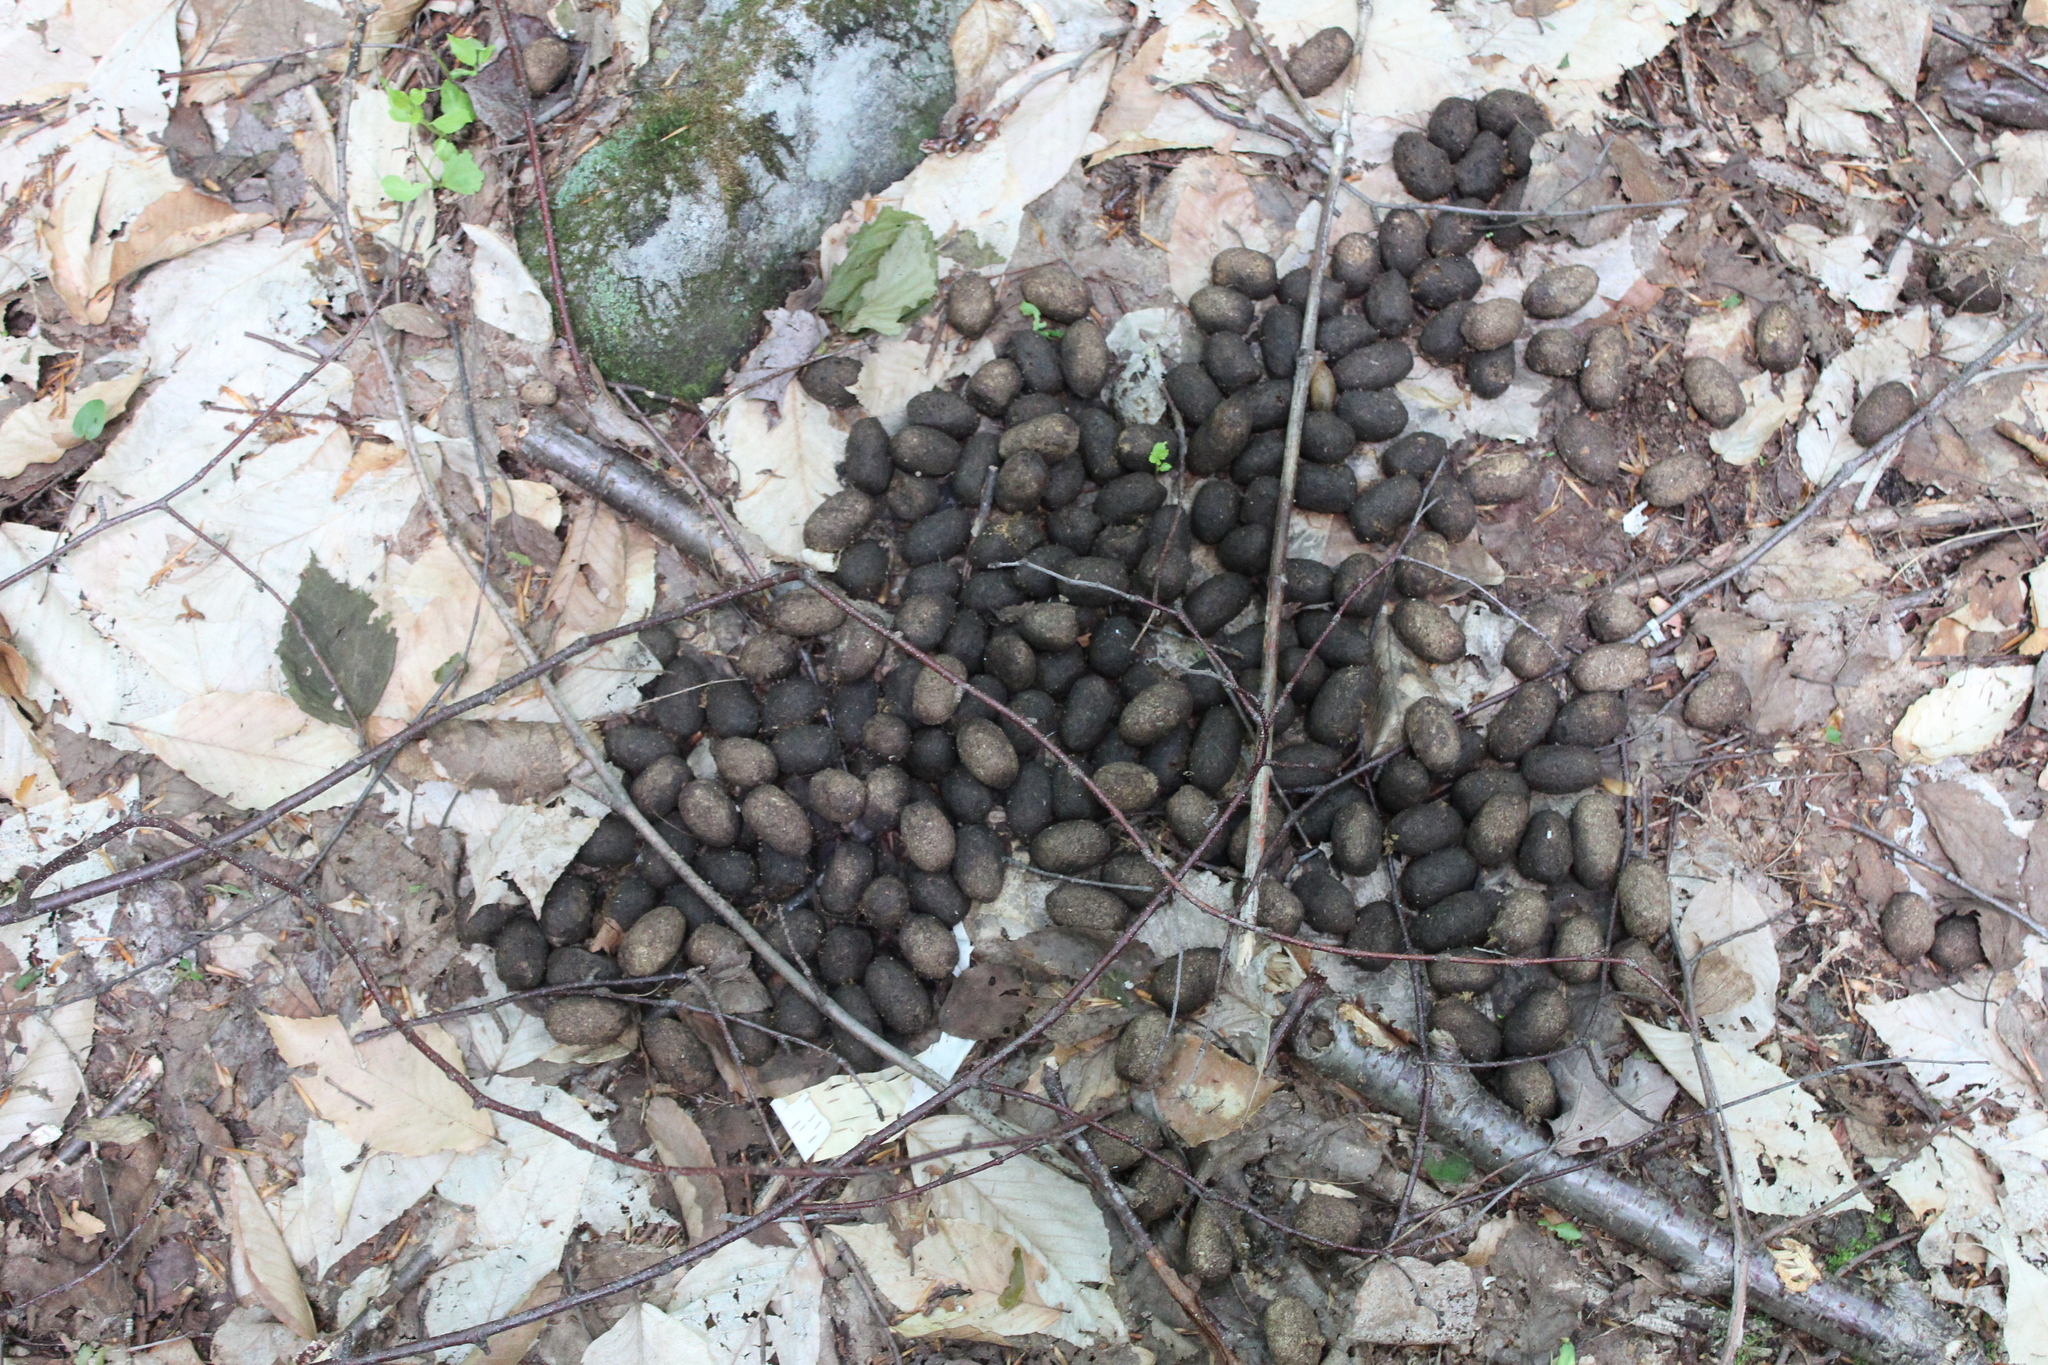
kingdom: Animalia
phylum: Chordata
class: Mammalia
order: Artiodactyla
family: Cervidae
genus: Alces
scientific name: Alces alces
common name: Moose
